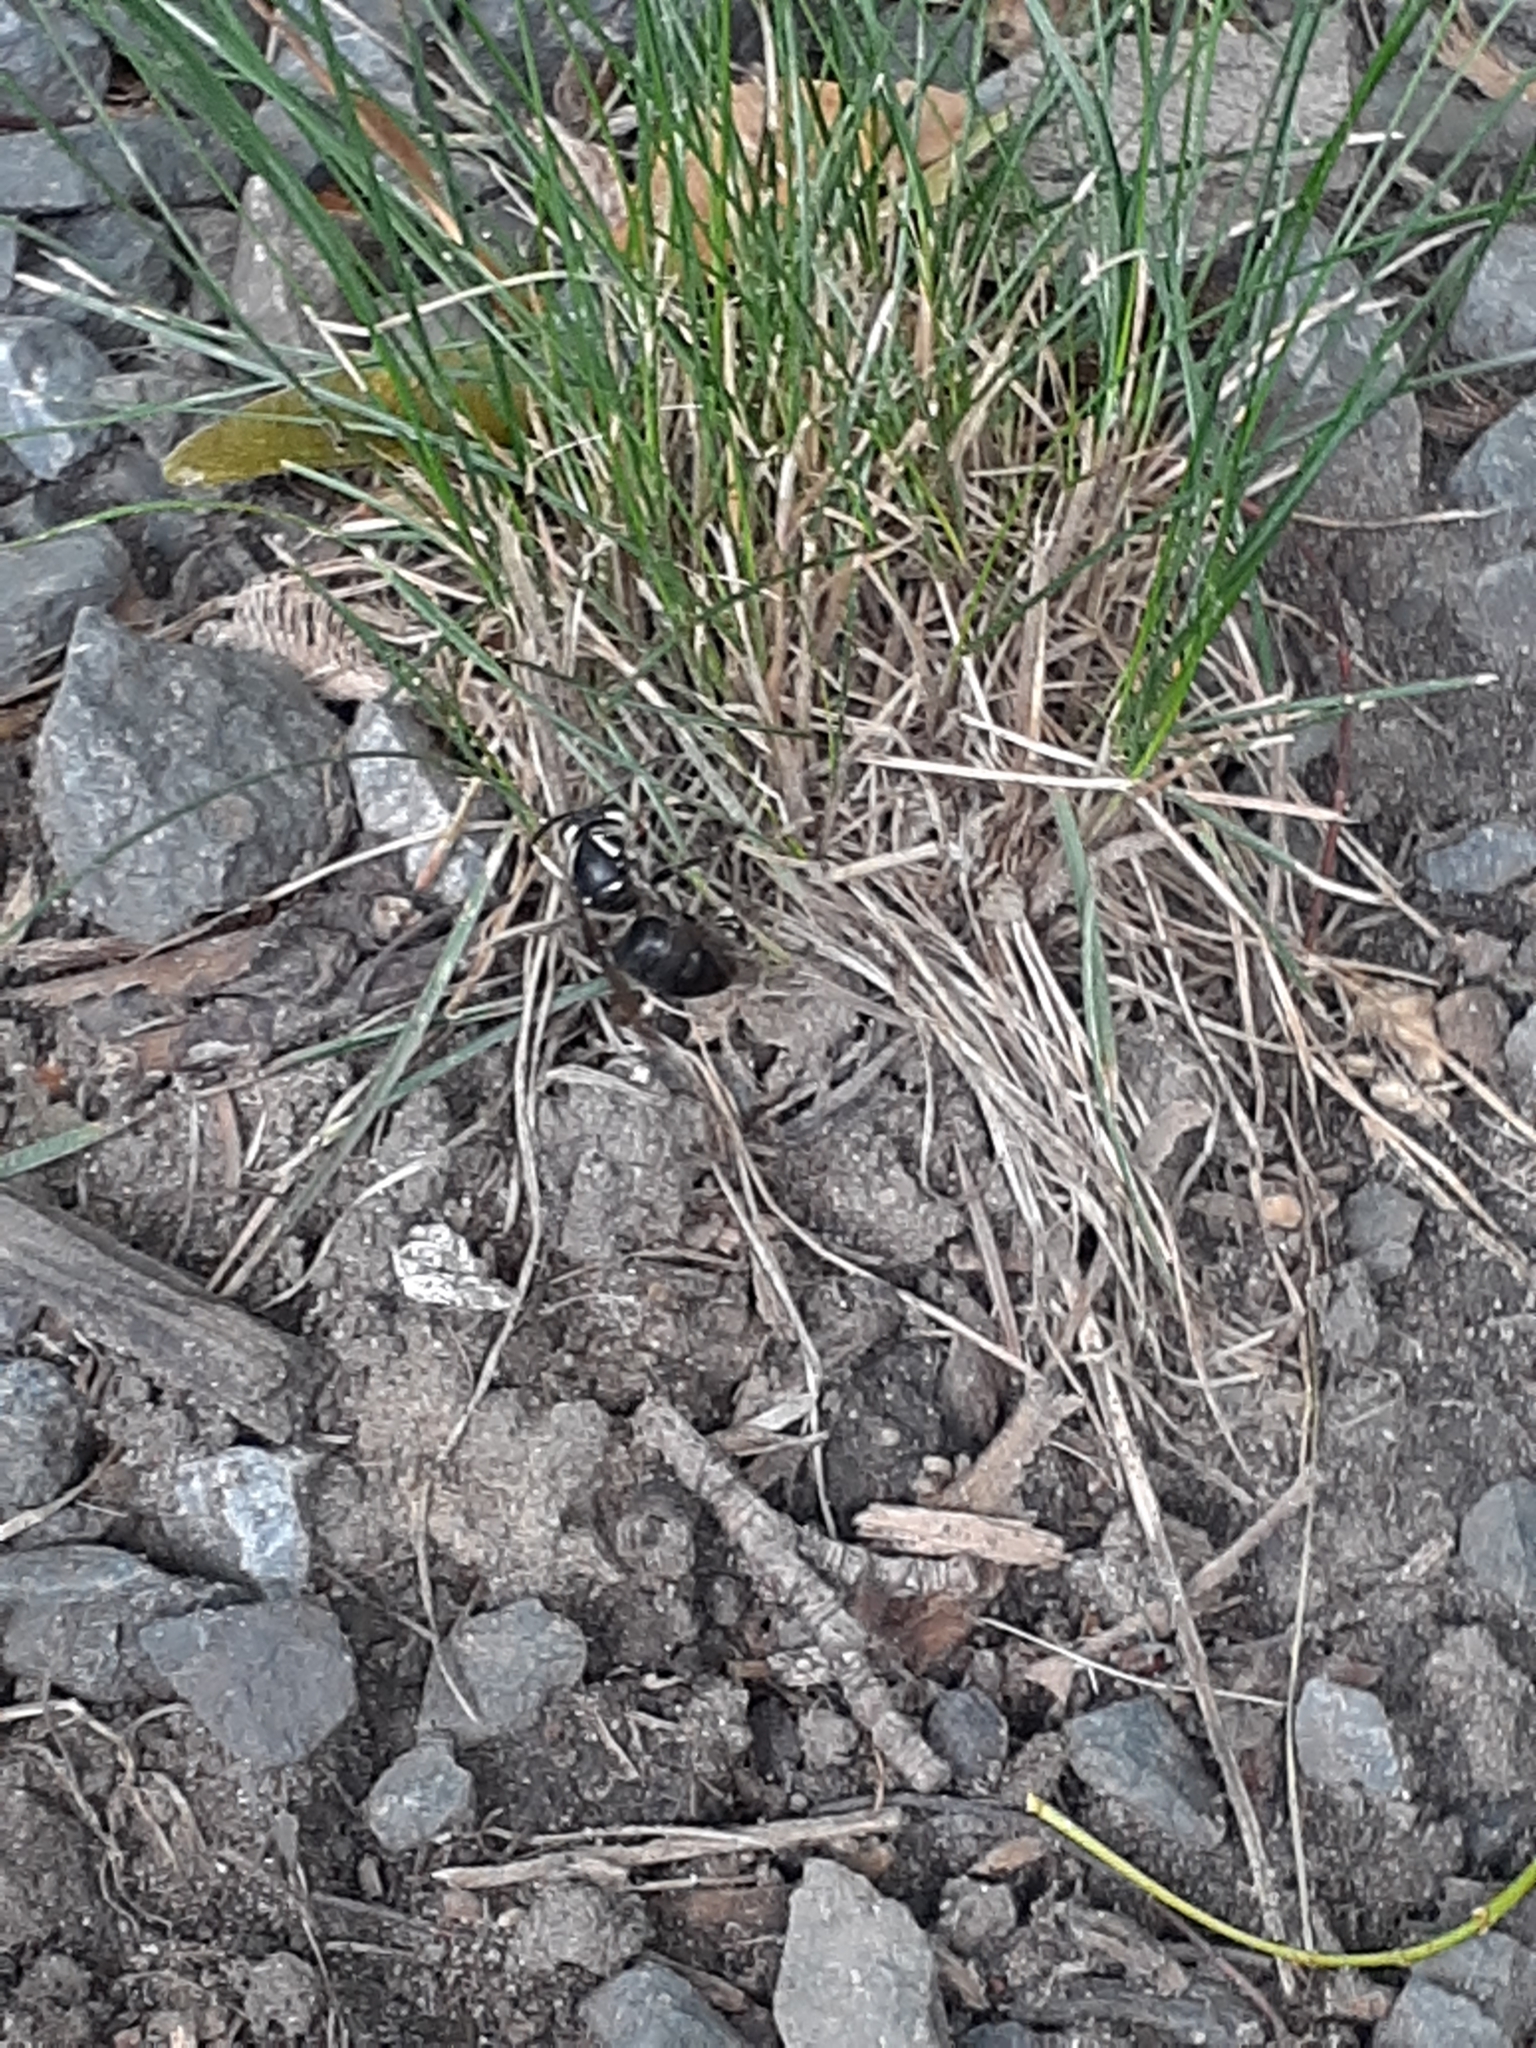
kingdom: Animalia
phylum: Arthropoda
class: Insecta
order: Hymenoptera
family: Vespidae
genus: Dolichovespula
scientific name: Dolichovespula maculata
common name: Bald-faced hornet
